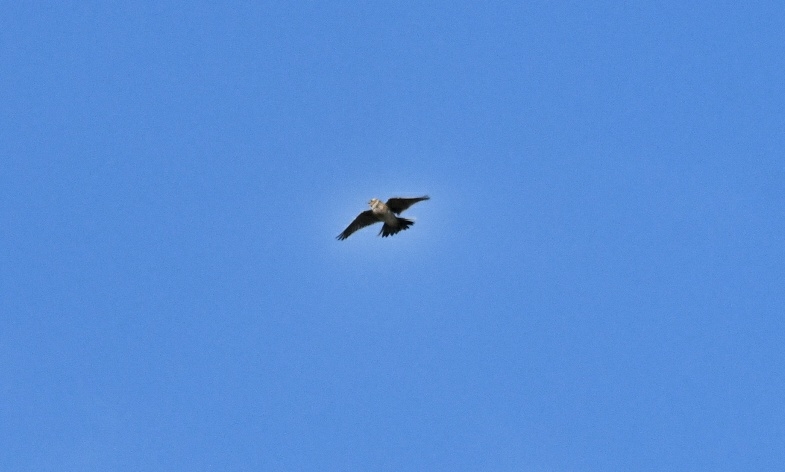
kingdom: Animalia
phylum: Chordata
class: Aves
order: Passeriformes
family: Alaudidae
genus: Alauda
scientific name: Alauda arvensis
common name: Eurasian skylark
